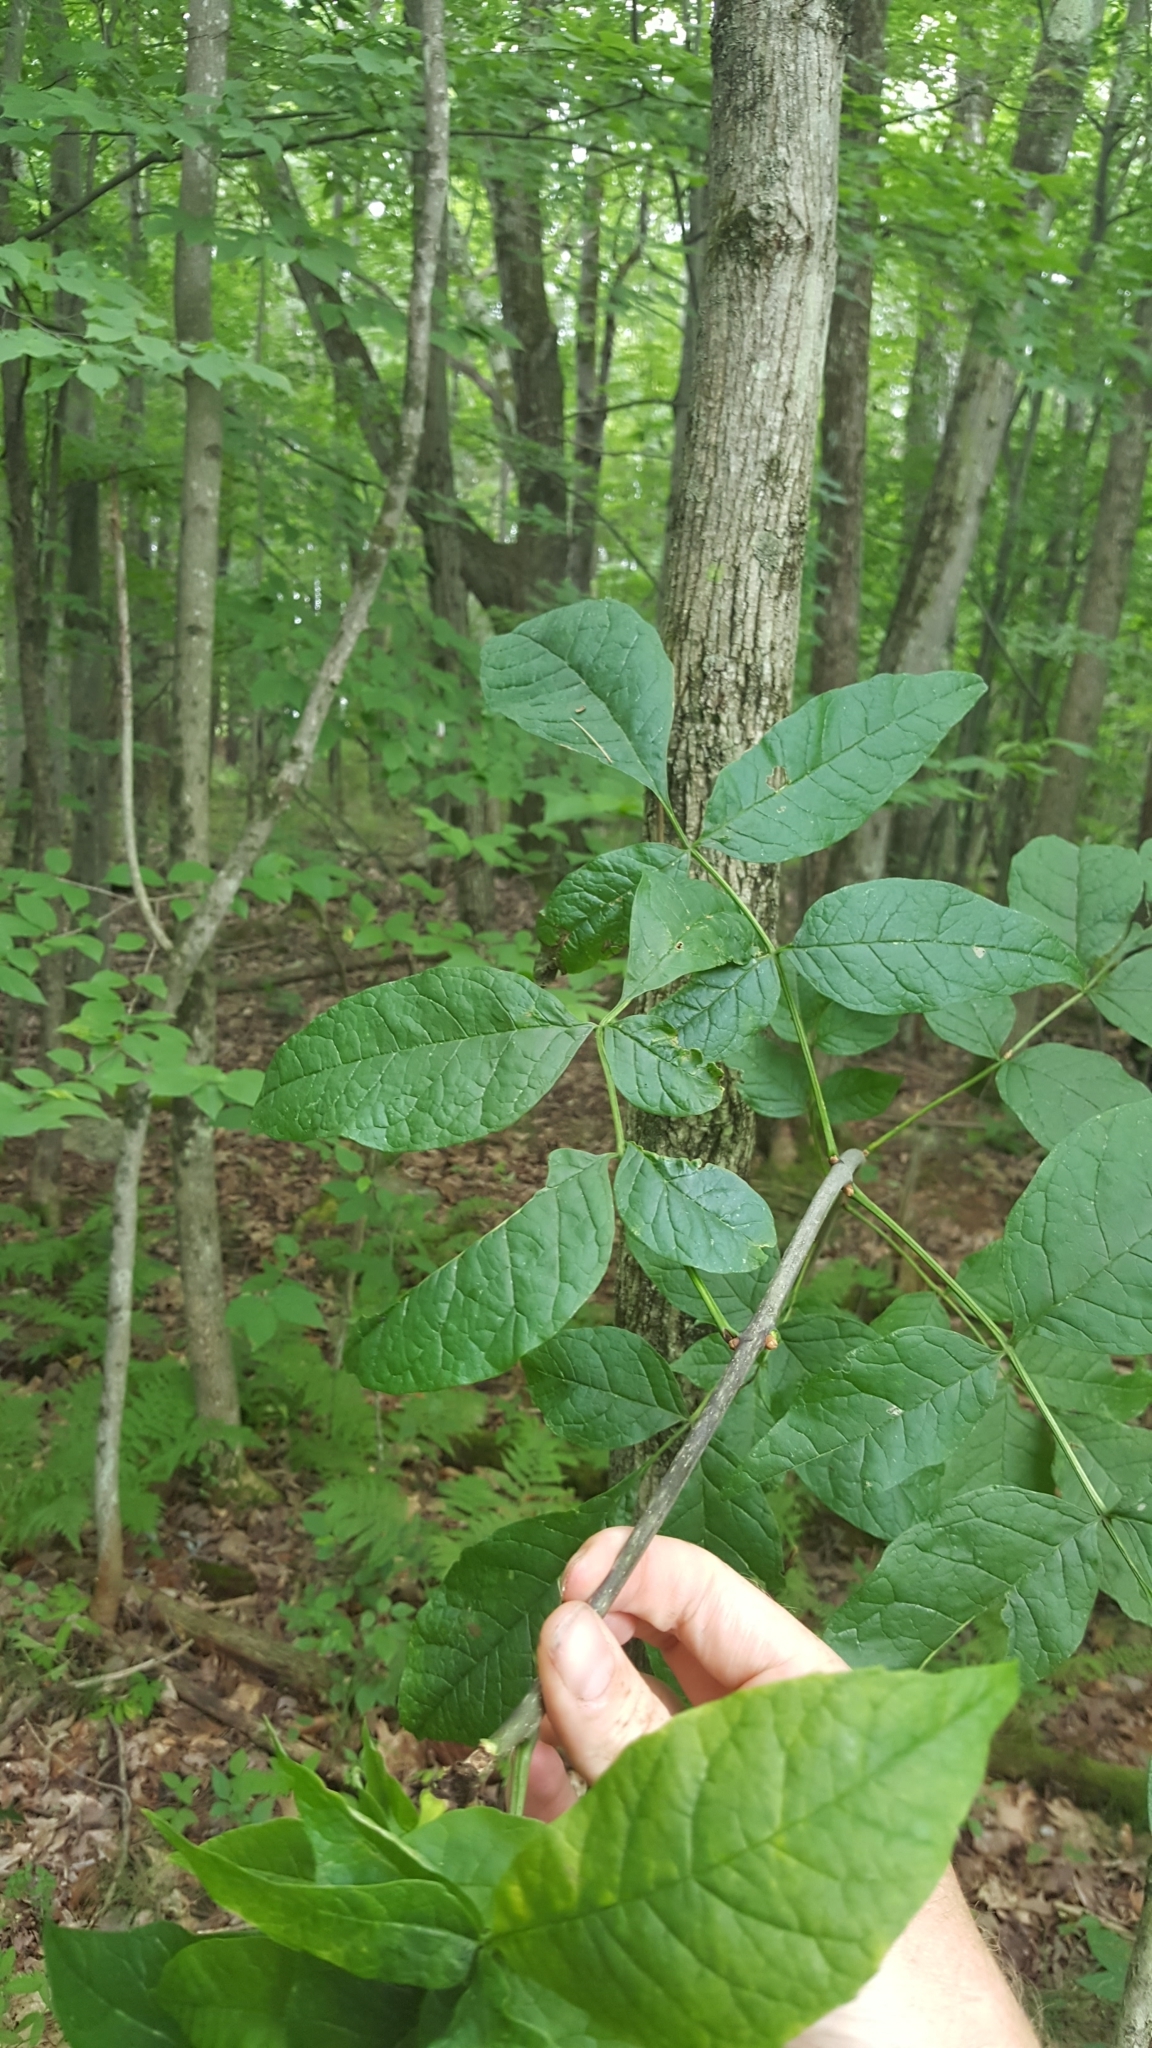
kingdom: Plantae
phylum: Tracheophyta
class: Magnoliopsida
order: Lamiales
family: Oleaceae
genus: Fraxinus
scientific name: Fraxinus americana
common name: White ash
